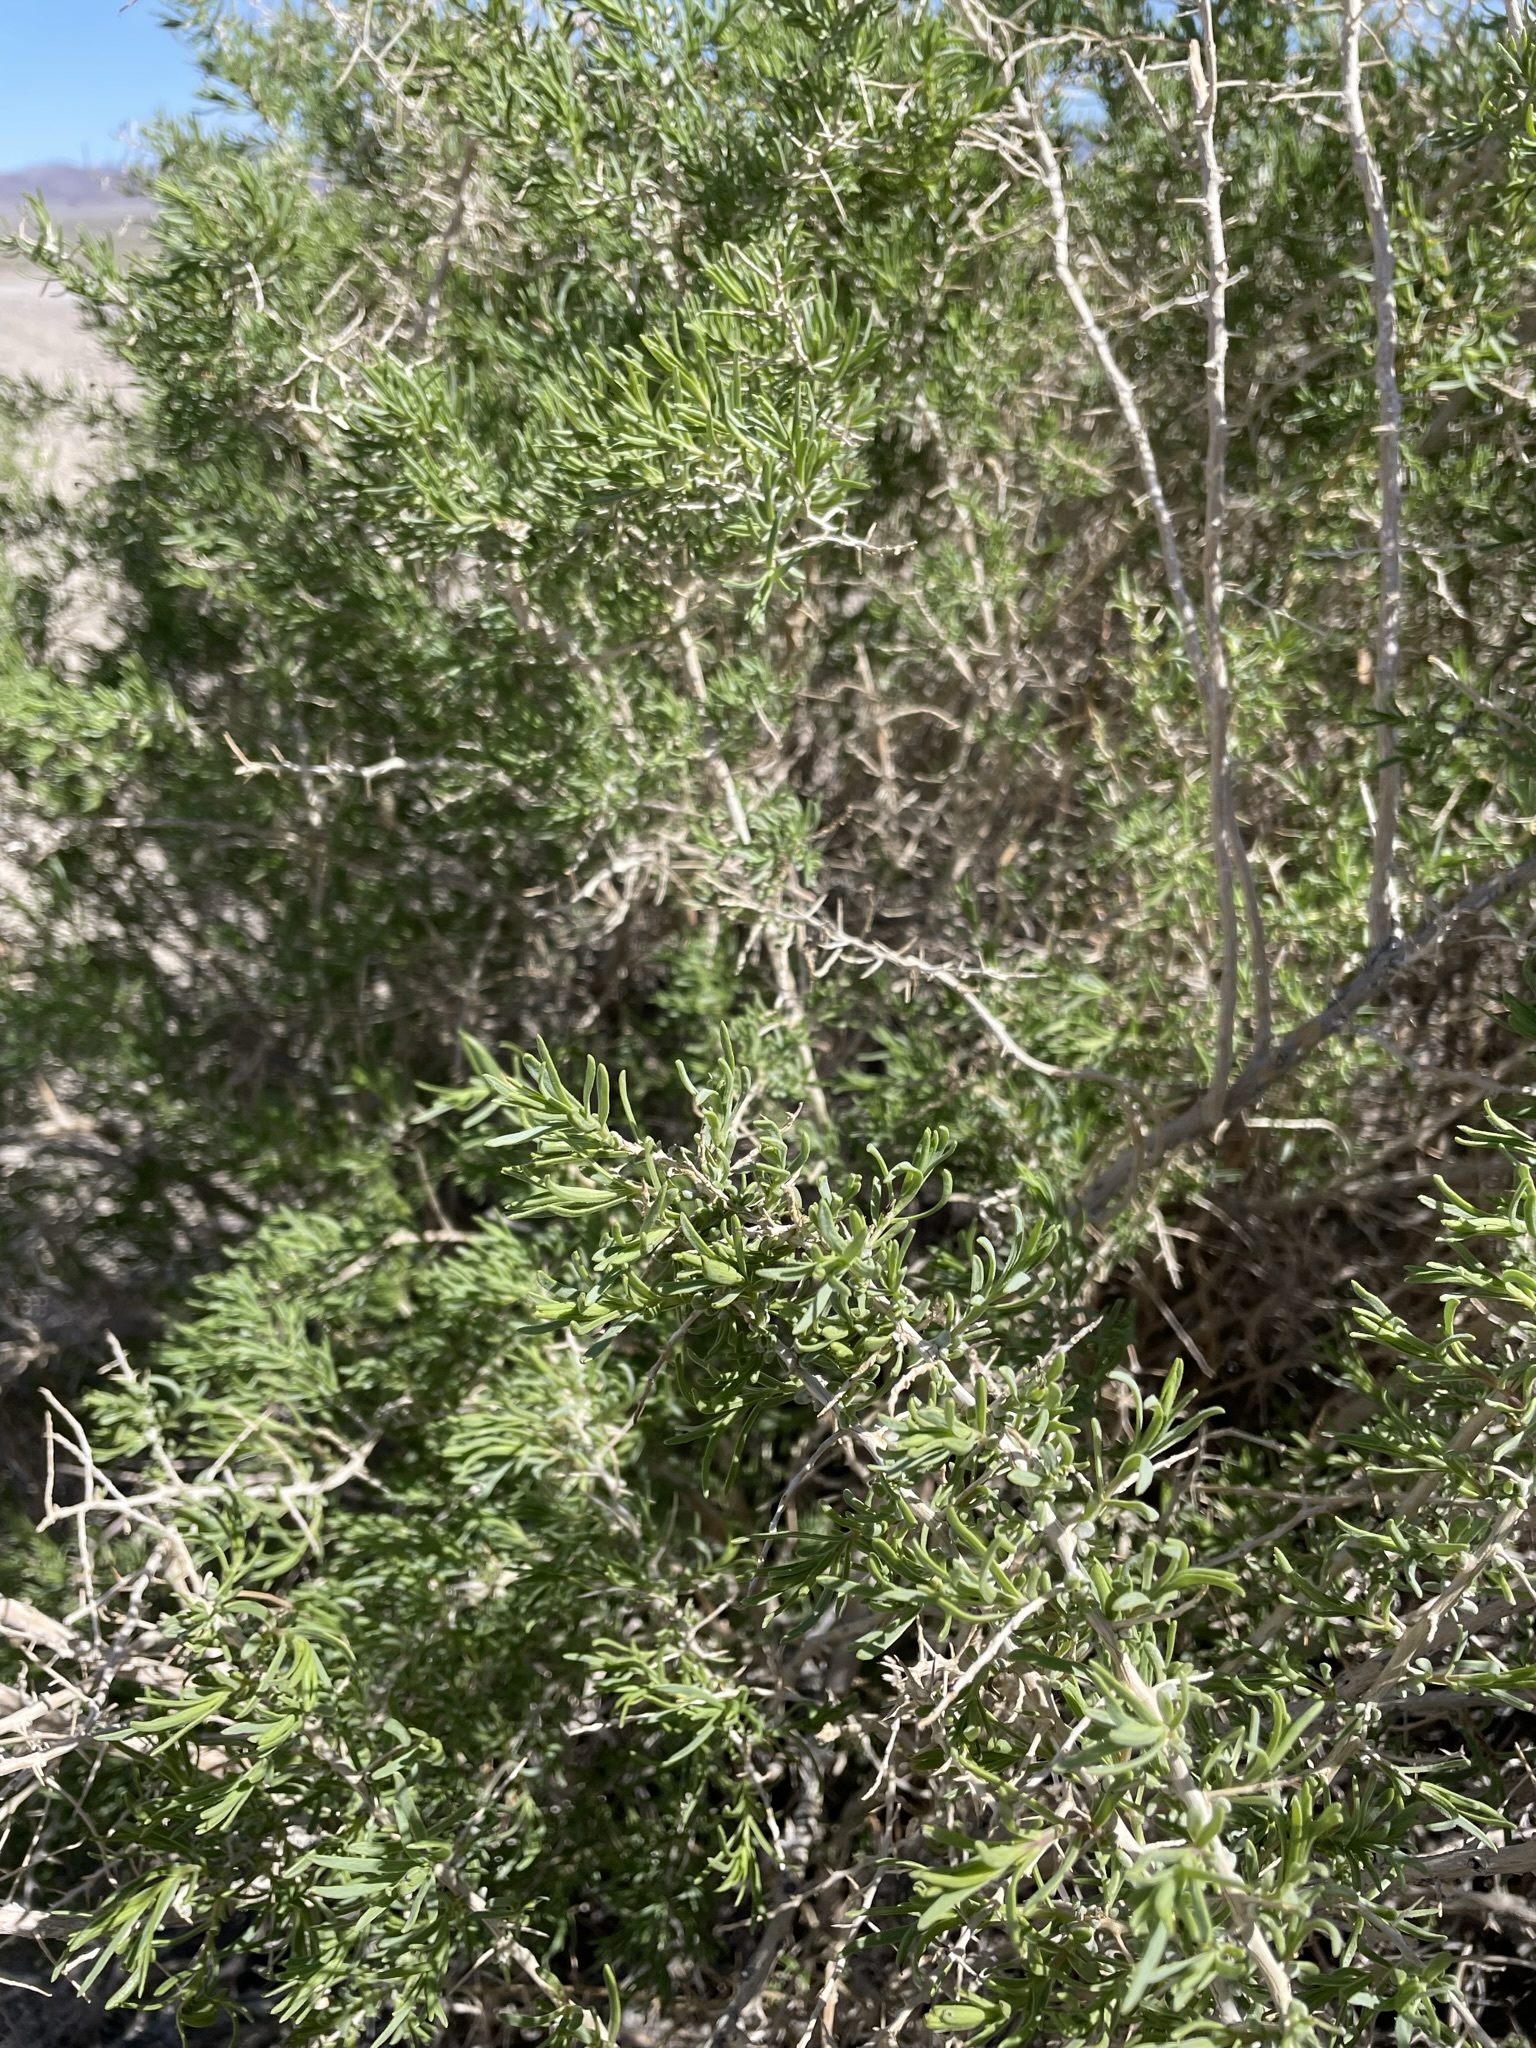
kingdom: Plantae
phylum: Tracheophyta
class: Magnoliopsida
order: Caryophyllales
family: Sarcobataceae
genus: Sarcobatus
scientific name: Sarcobatus vermiculatus
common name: Greasewood
